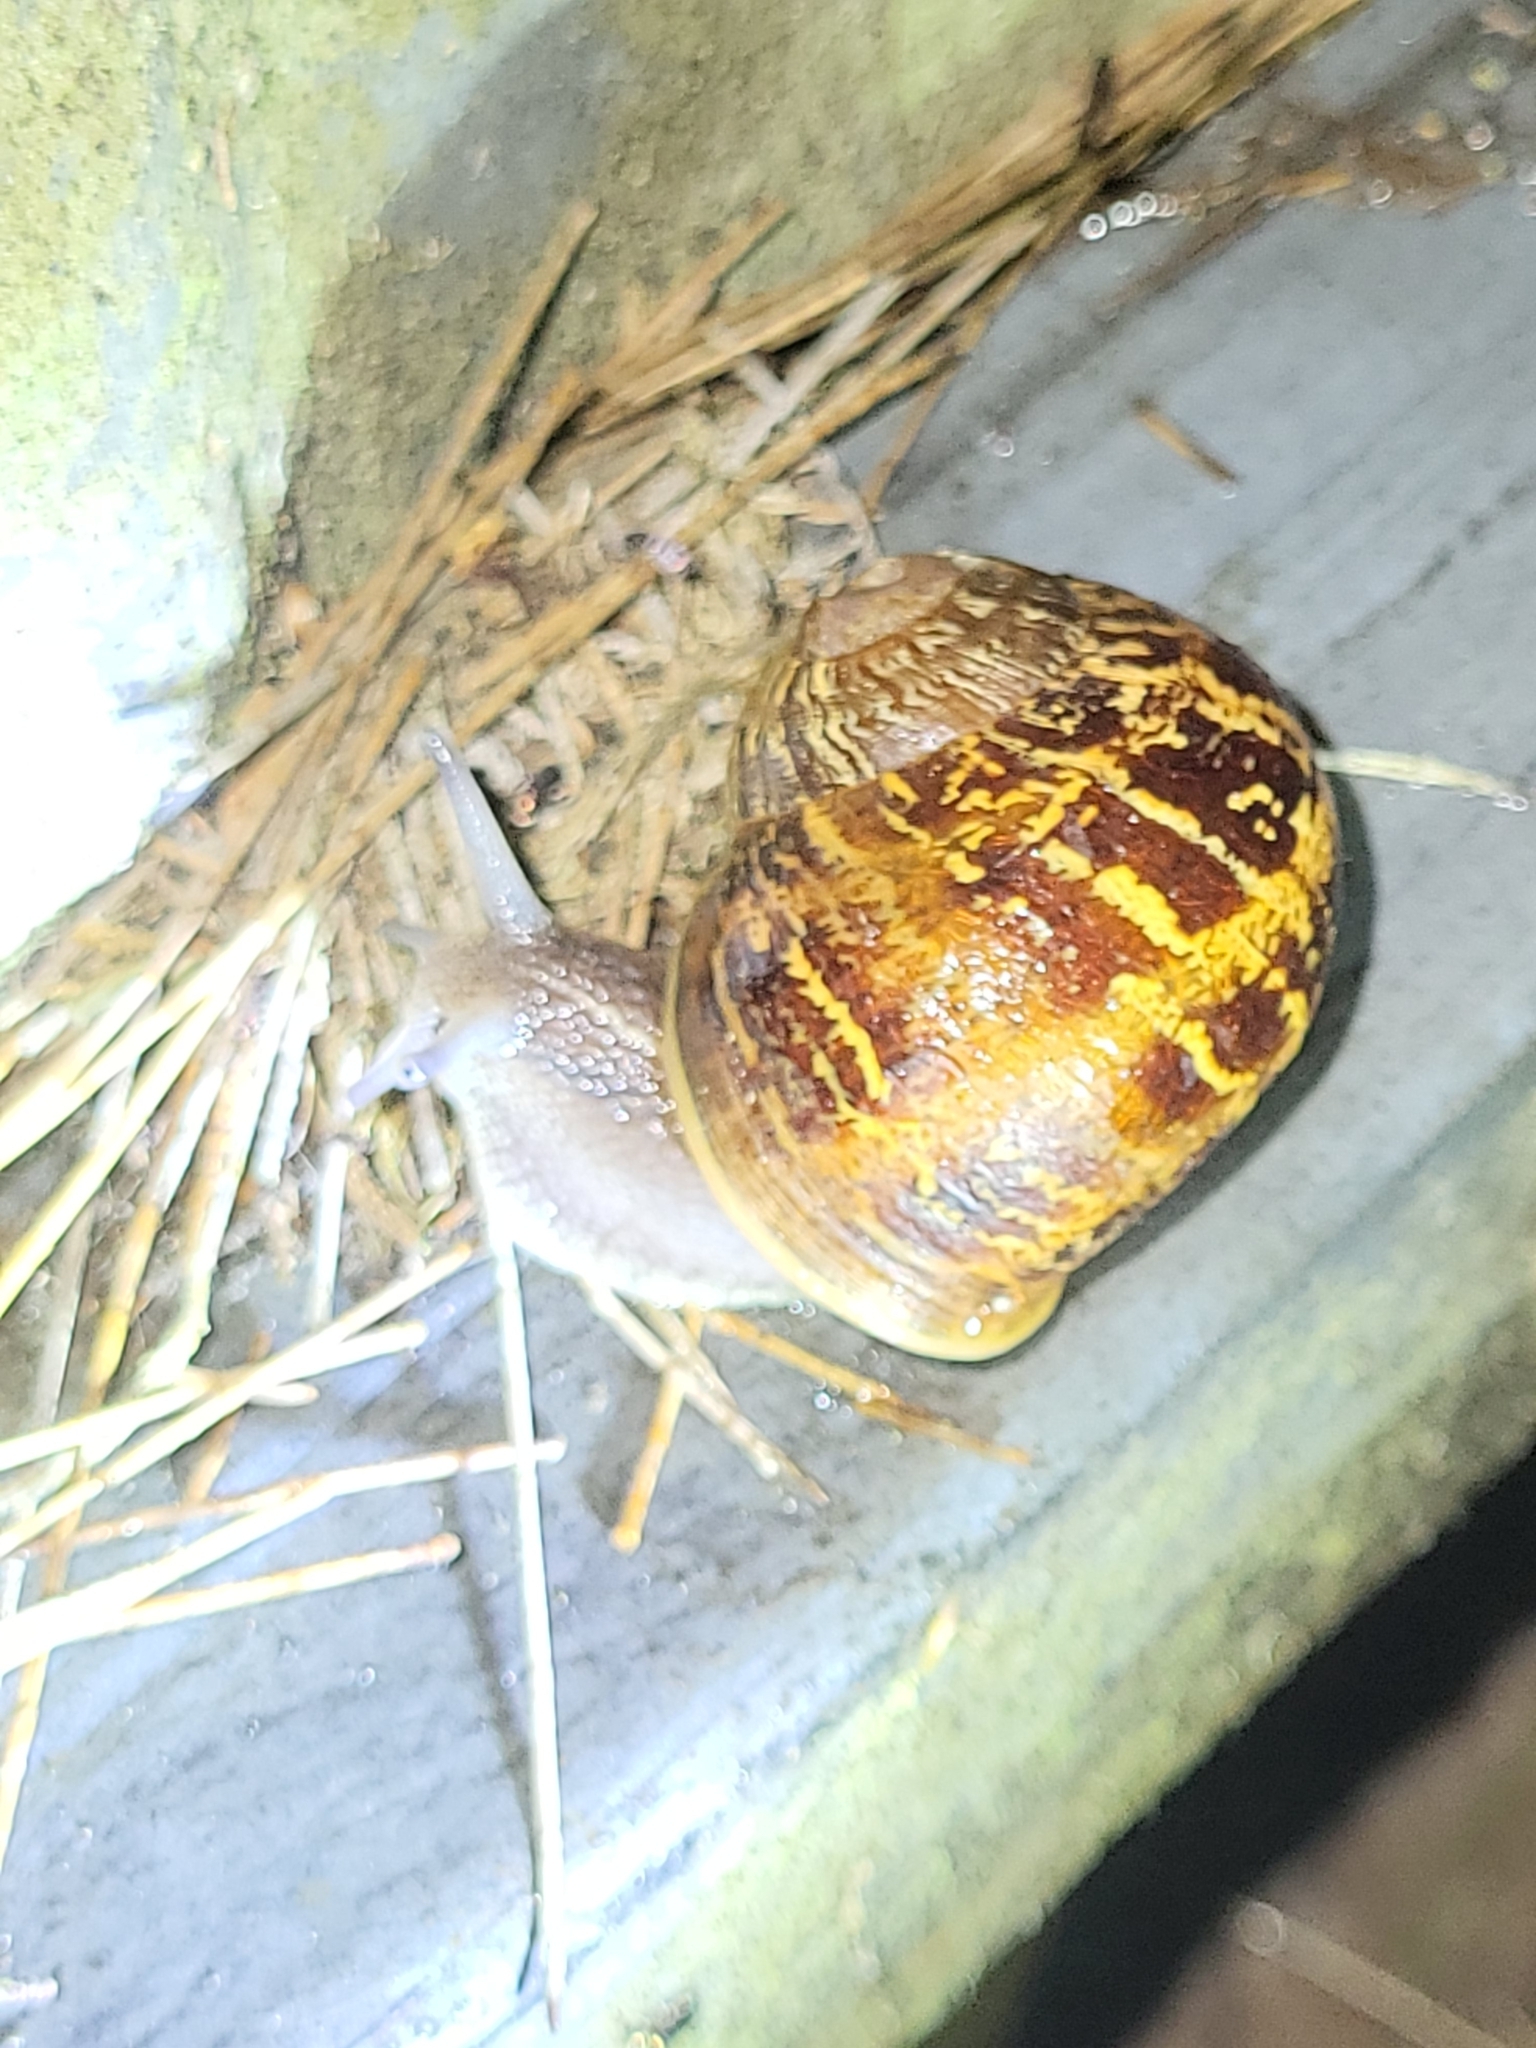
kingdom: Animalia
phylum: Mollusca
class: Gastropoda
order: Stylommatophora
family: Helicidae
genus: Cornu
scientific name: Cornu aspersum
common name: Brown garden snail
